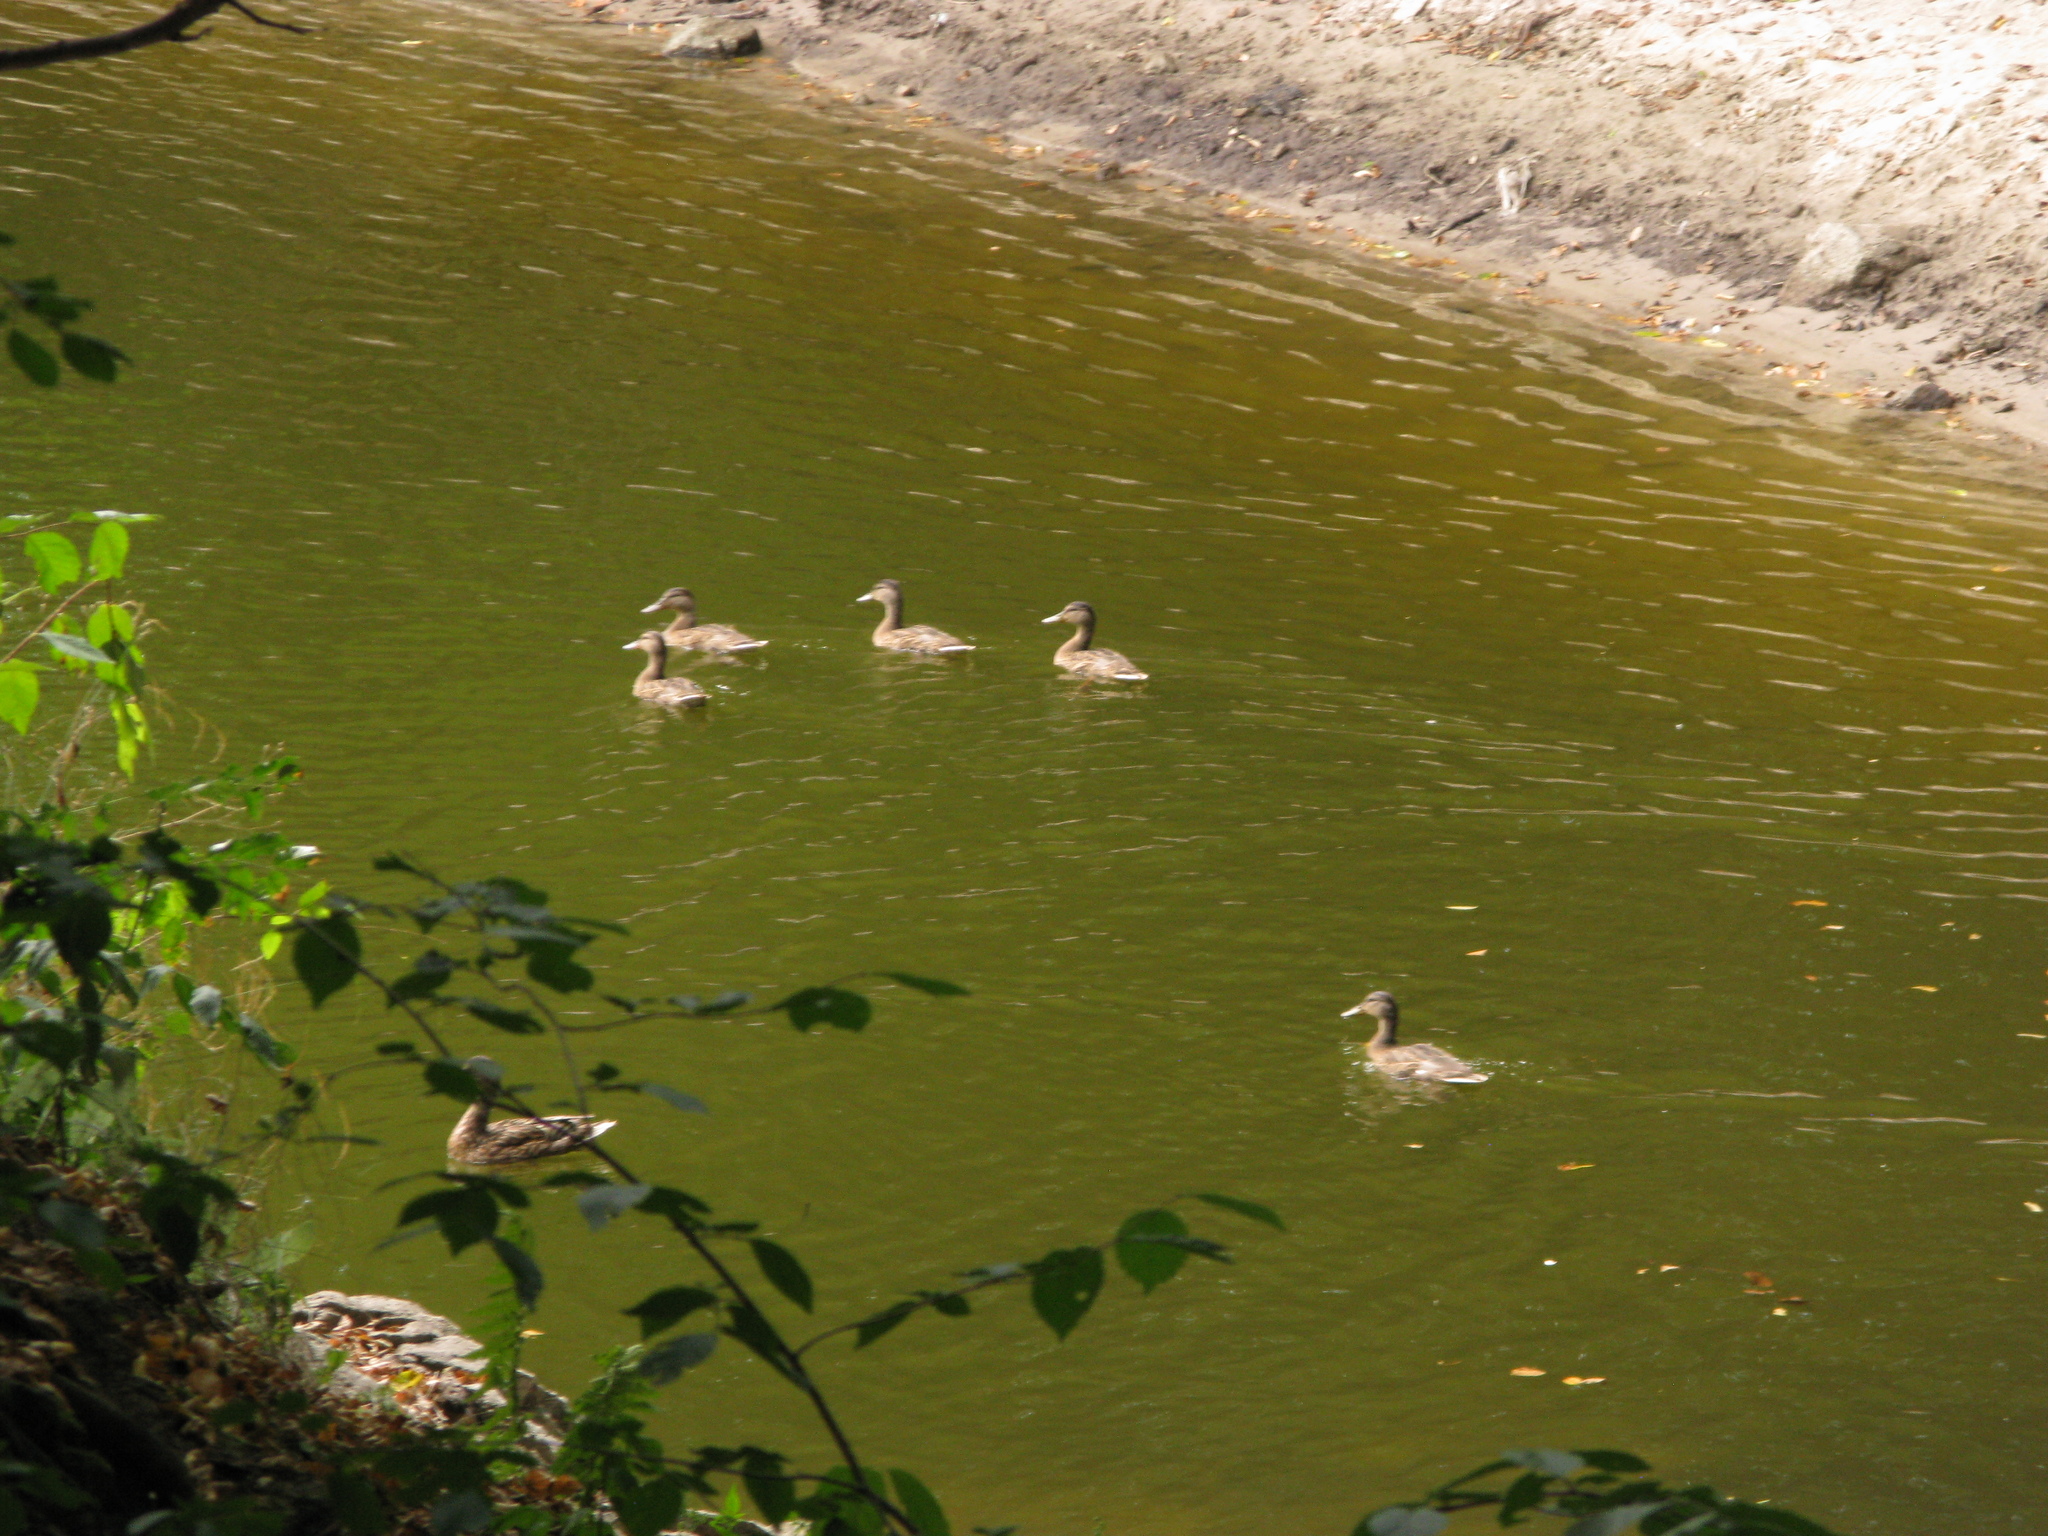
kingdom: Animalia
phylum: Chordata
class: Aves
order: Anseriformes
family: Anatidae
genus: Anas
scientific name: Anas platyrhynchos
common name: Mallard
